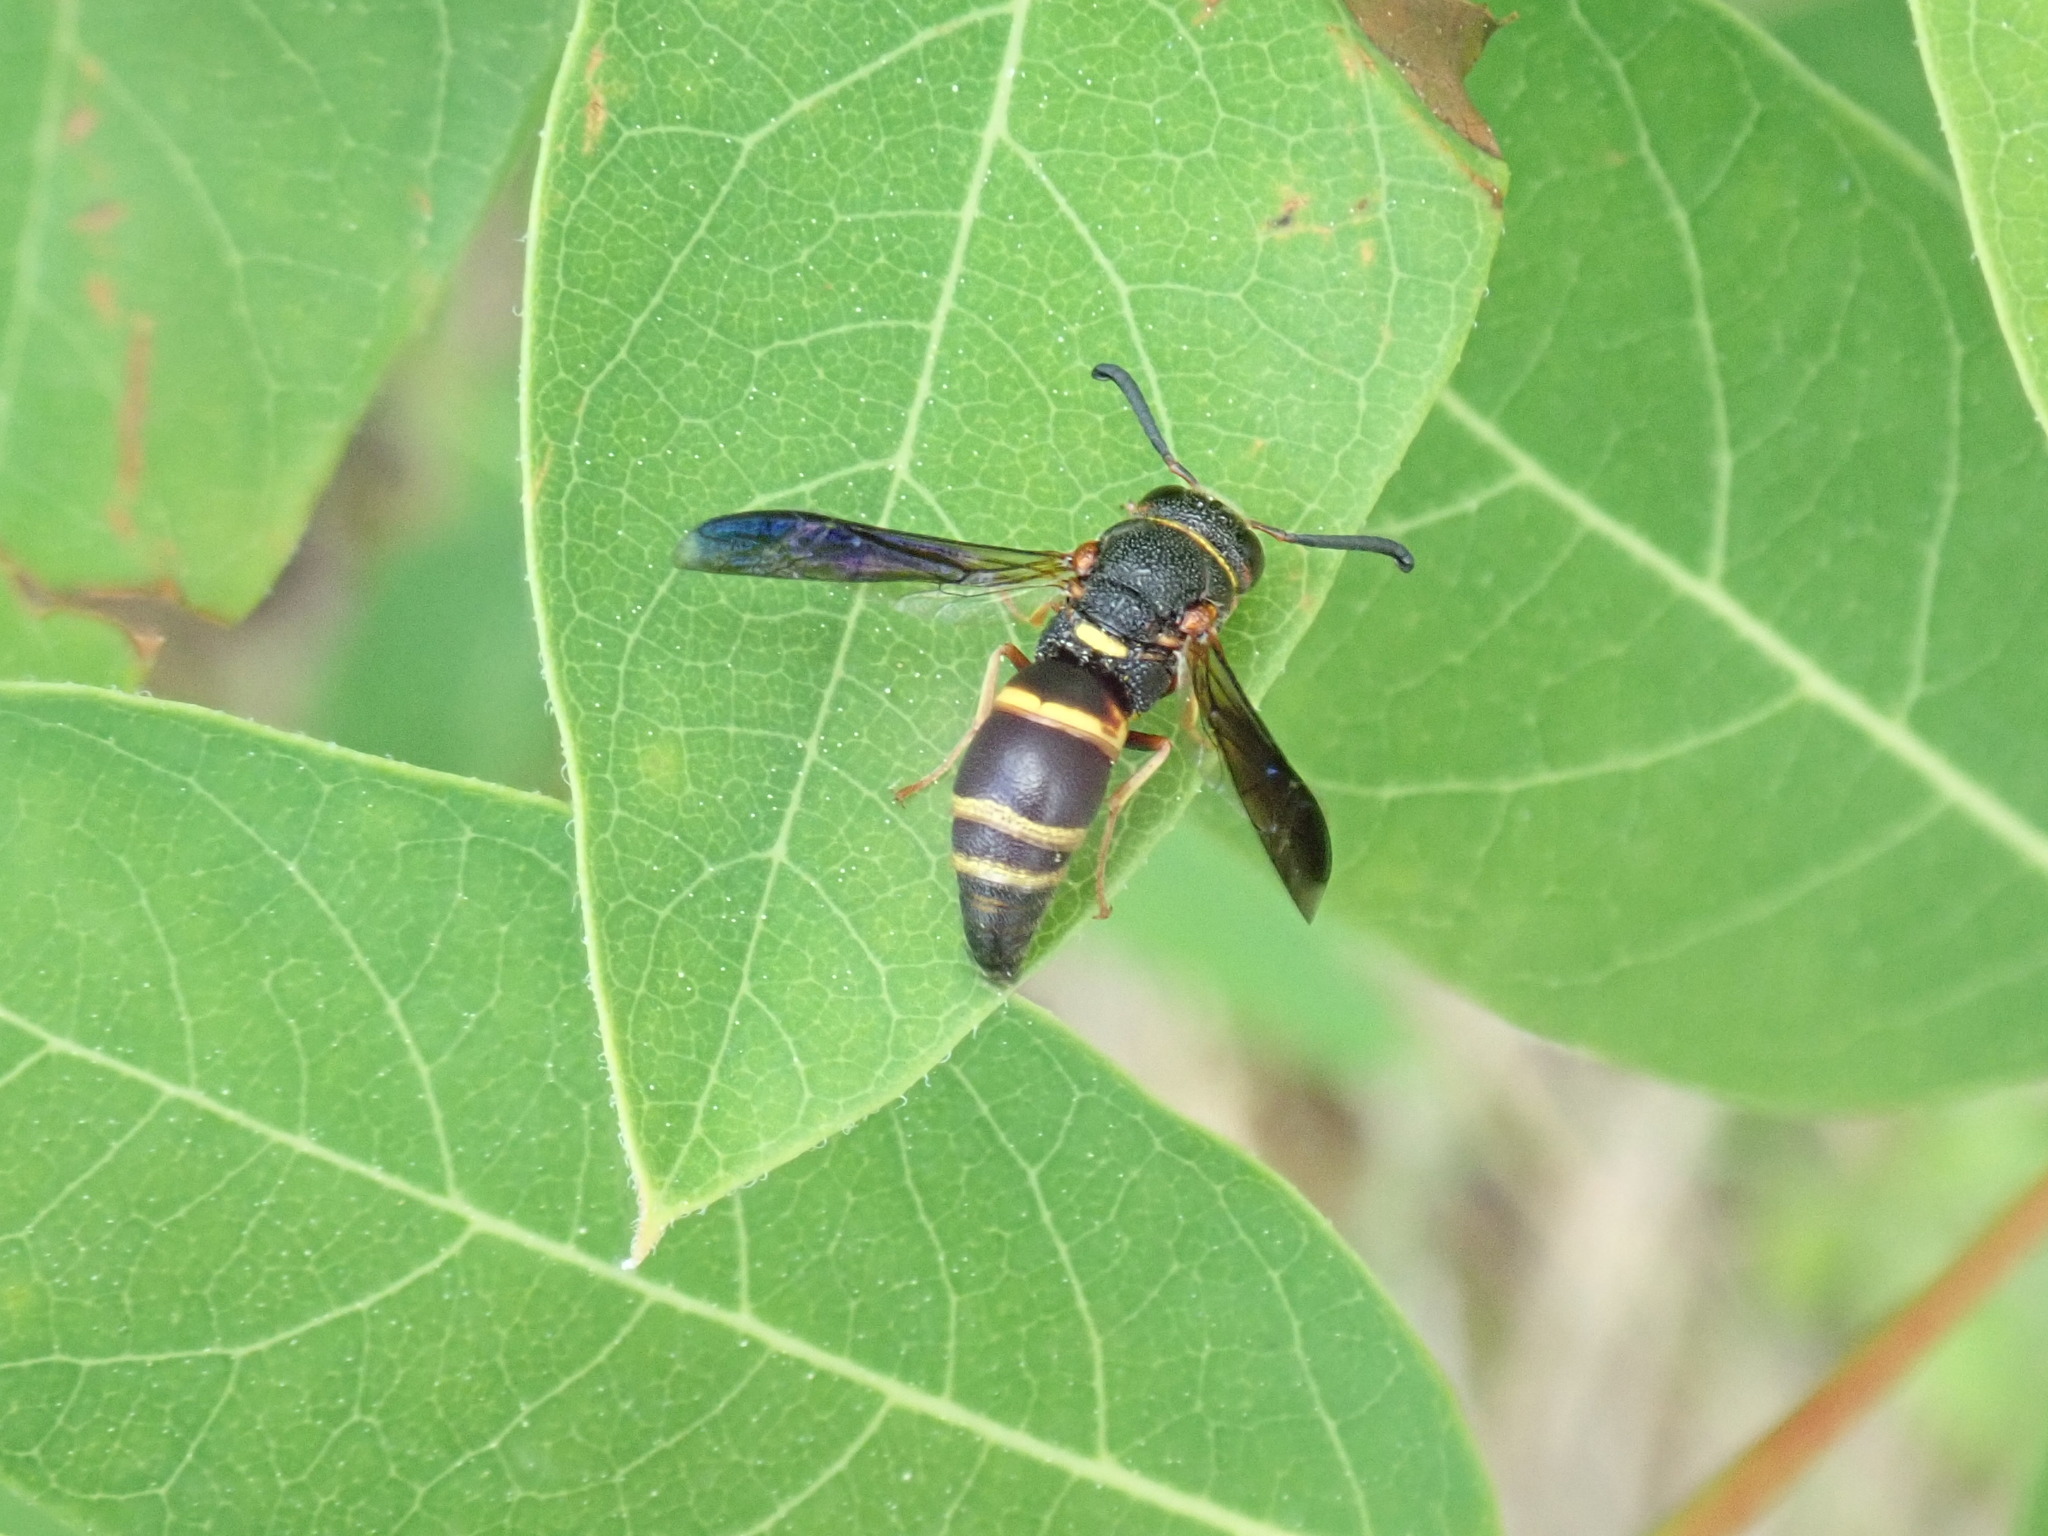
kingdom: Animalia
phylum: Arthropoda
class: Insecta
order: Hymenoptera
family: Eumenidae
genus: Euodynerus
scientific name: Euodynerus hidalgo
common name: Wasp
